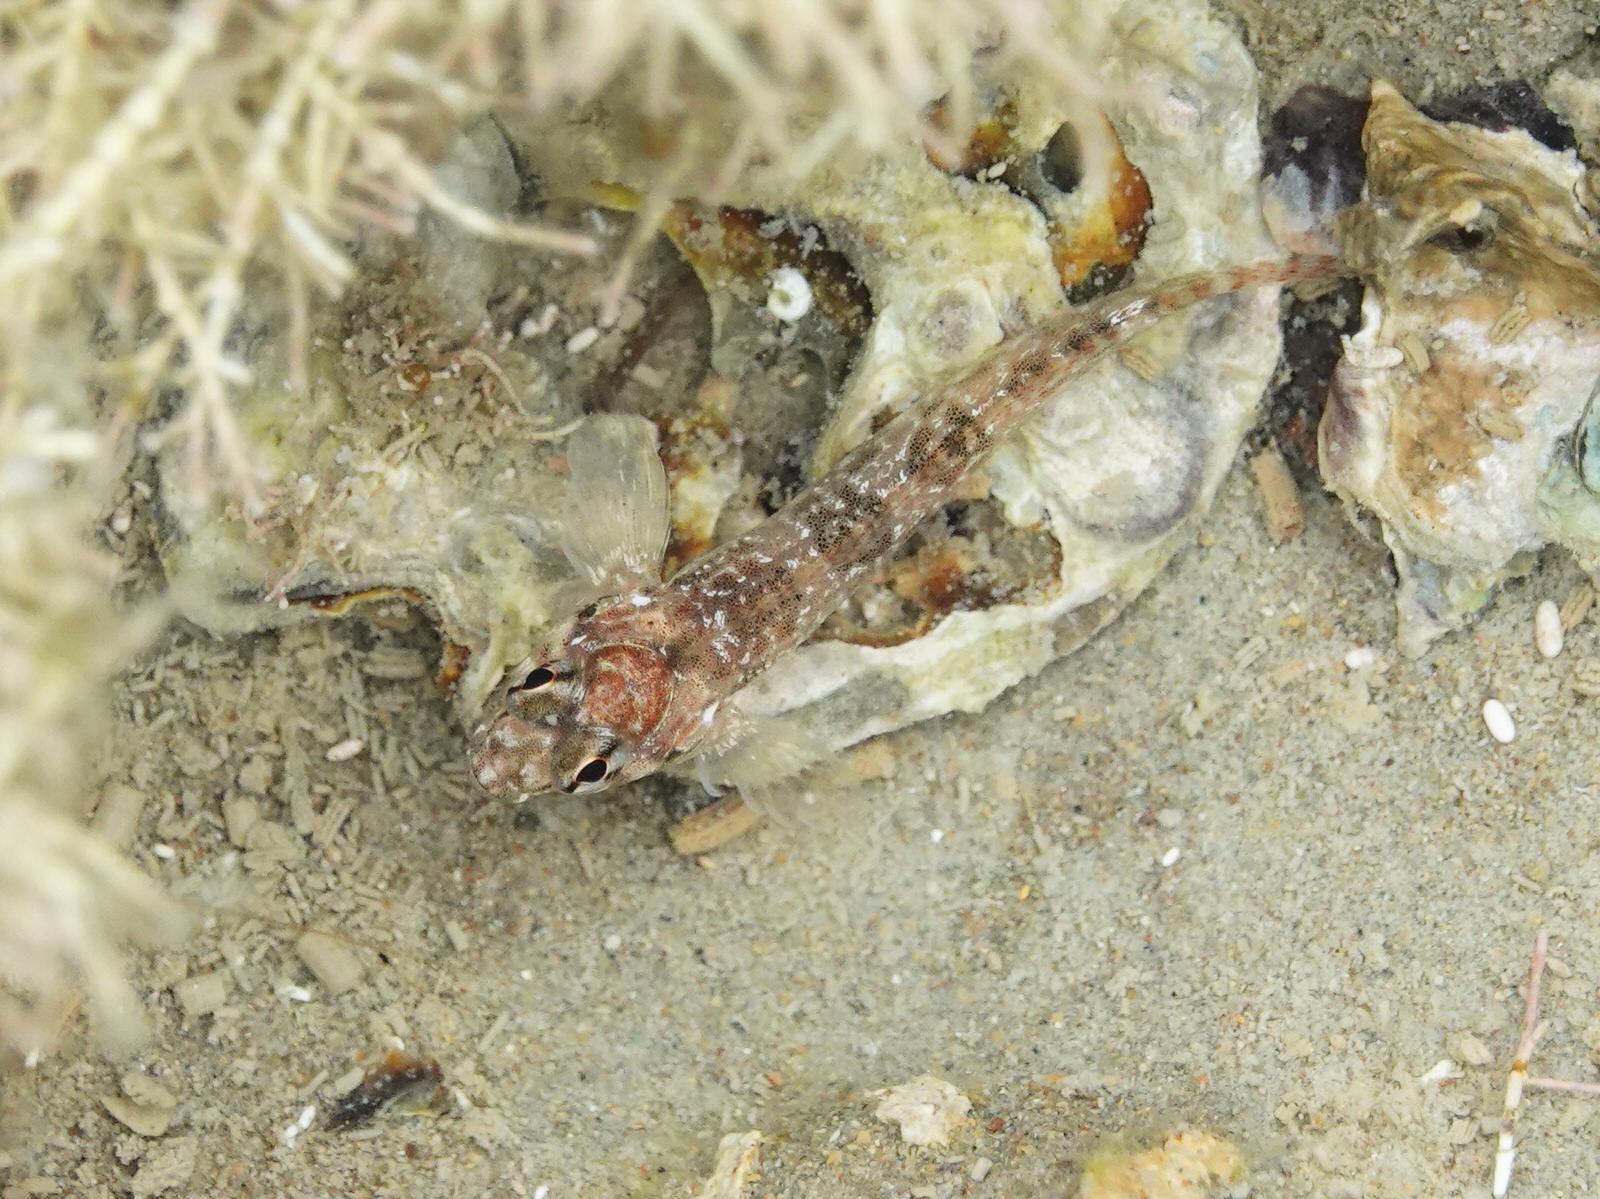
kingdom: Animalia
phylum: Chordata
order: Perciformes
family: Tripterygiidae
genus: Bellapiscis
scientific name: Bellapiscis medius
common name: Twister
